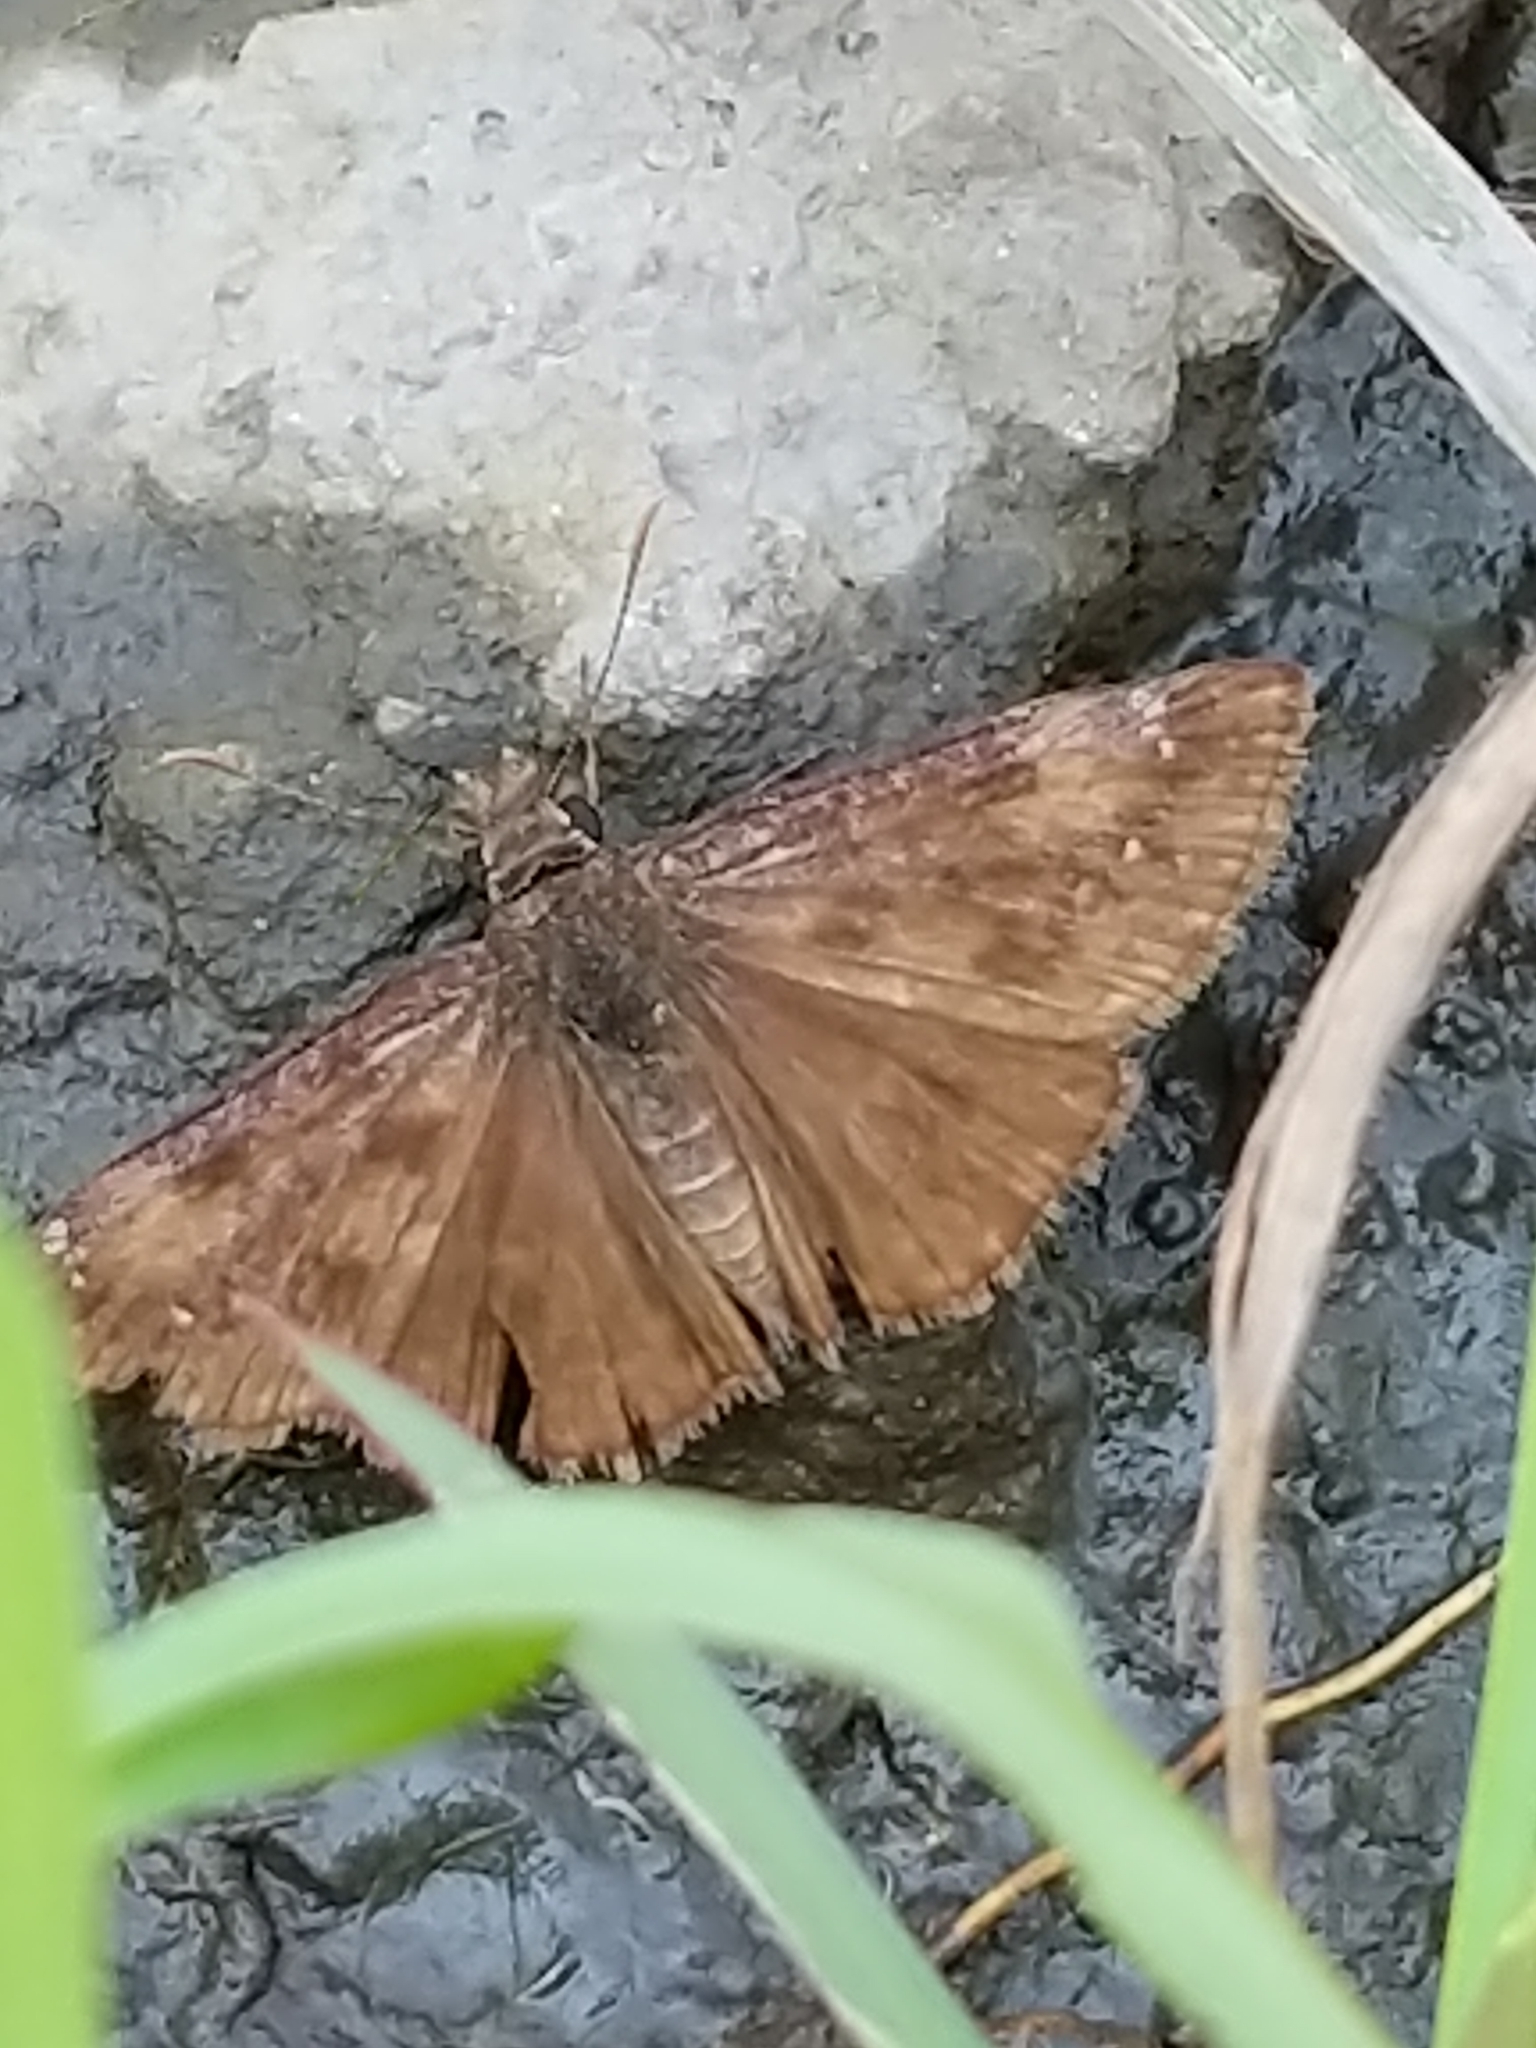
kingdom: Animalia
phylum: Arthropoda
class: Insecta
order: Lepidoptera
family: Hesperiidae
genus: Erynnis
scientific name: Erynnis baptisiae
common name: Wild indigo duskywing
